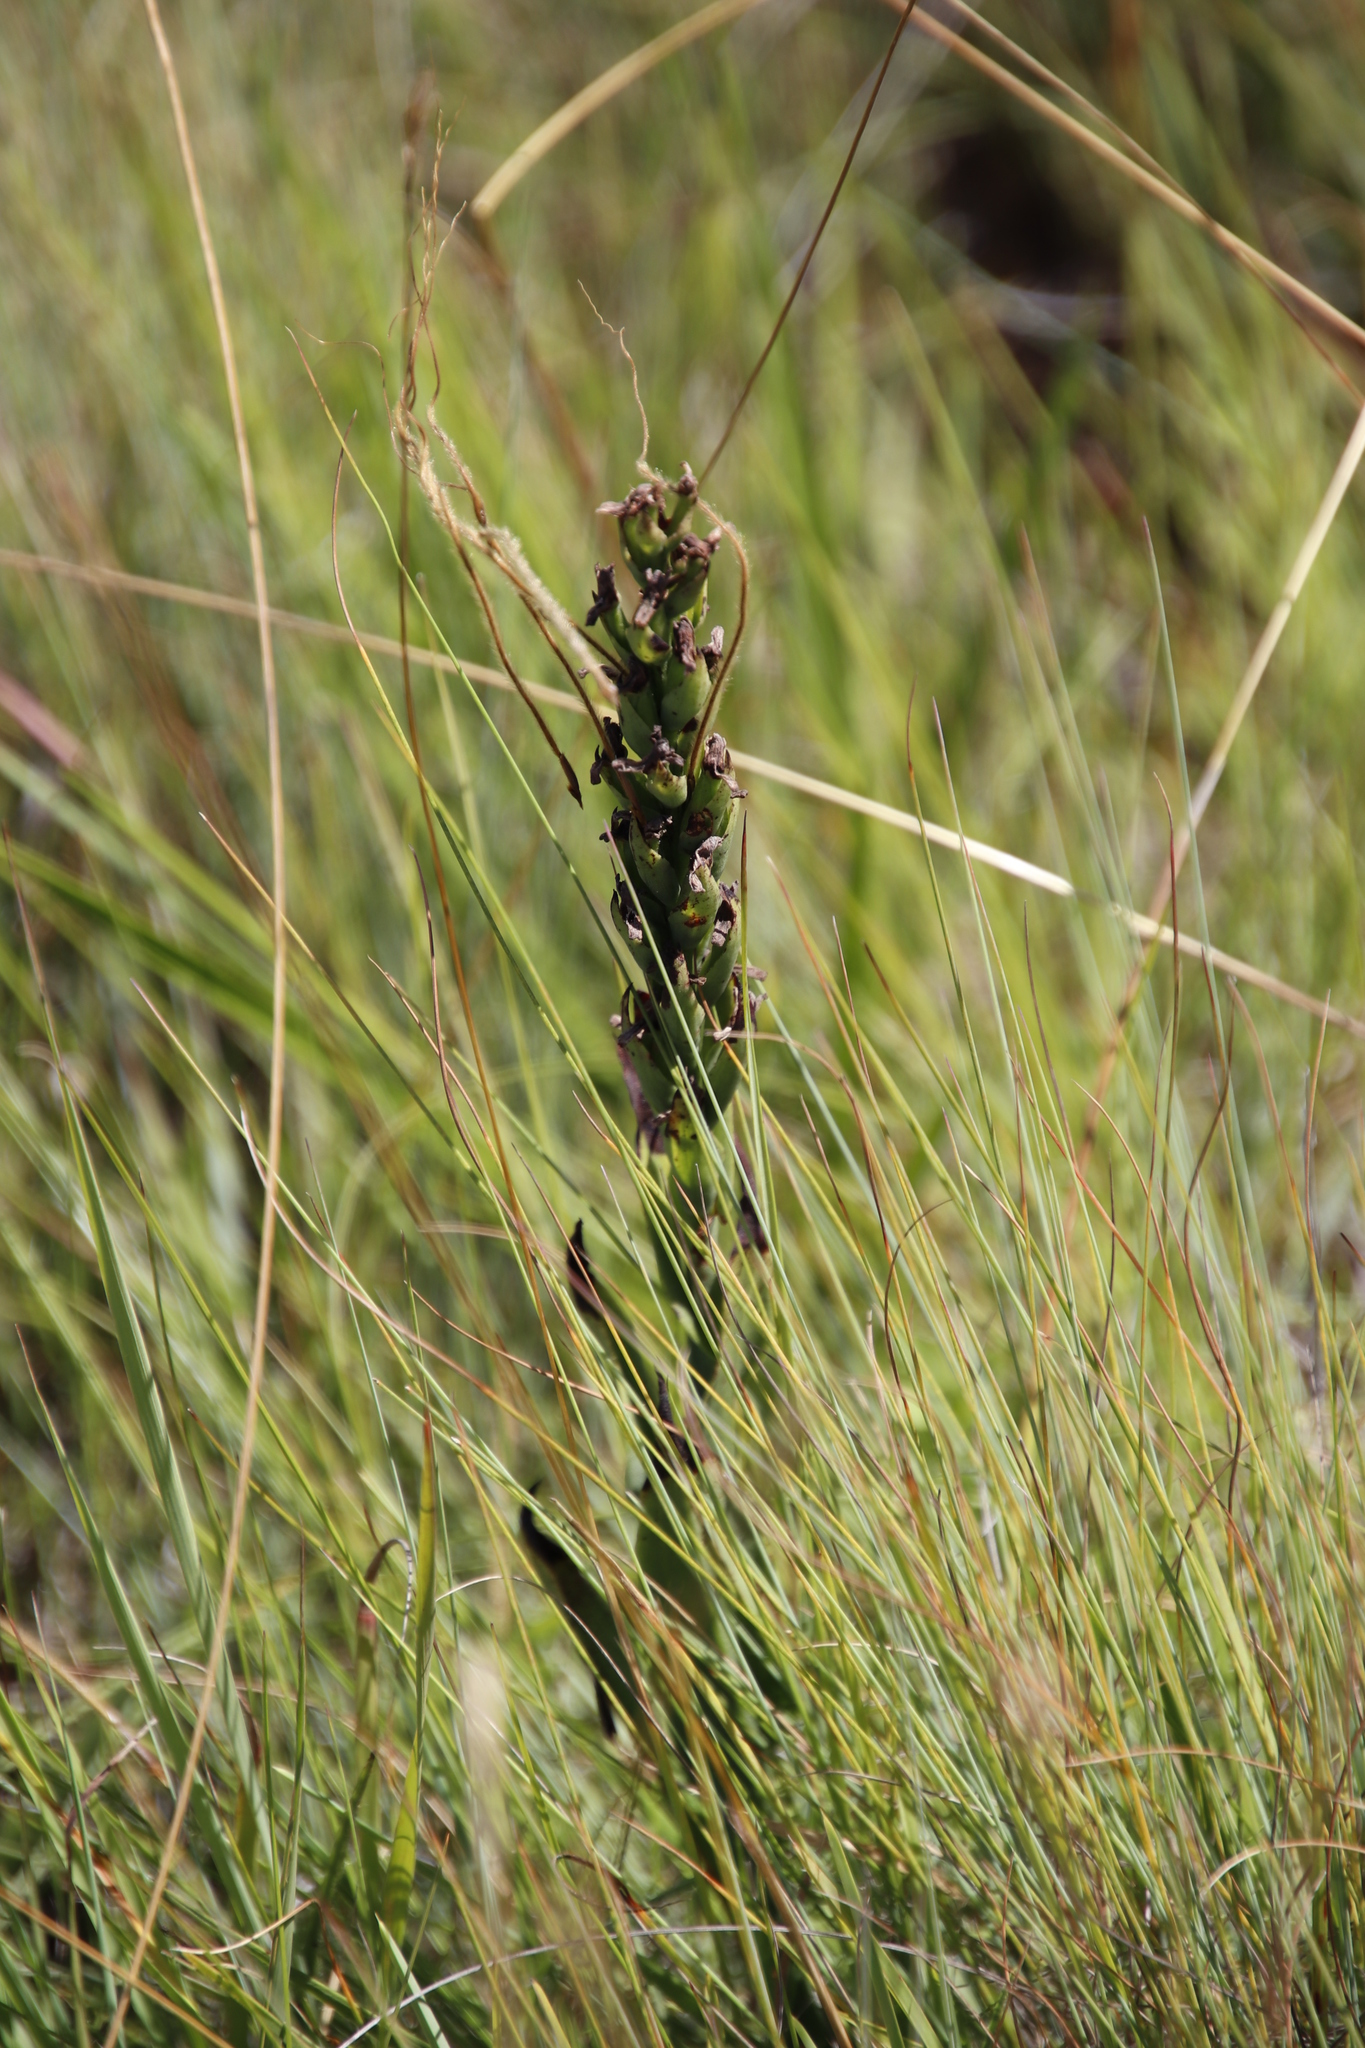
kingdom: Plantae
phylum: Tracheophyta
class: Liliopsida
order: Asparagales
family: Orchidaceae
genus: Disa
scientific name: Disa stachyoides
